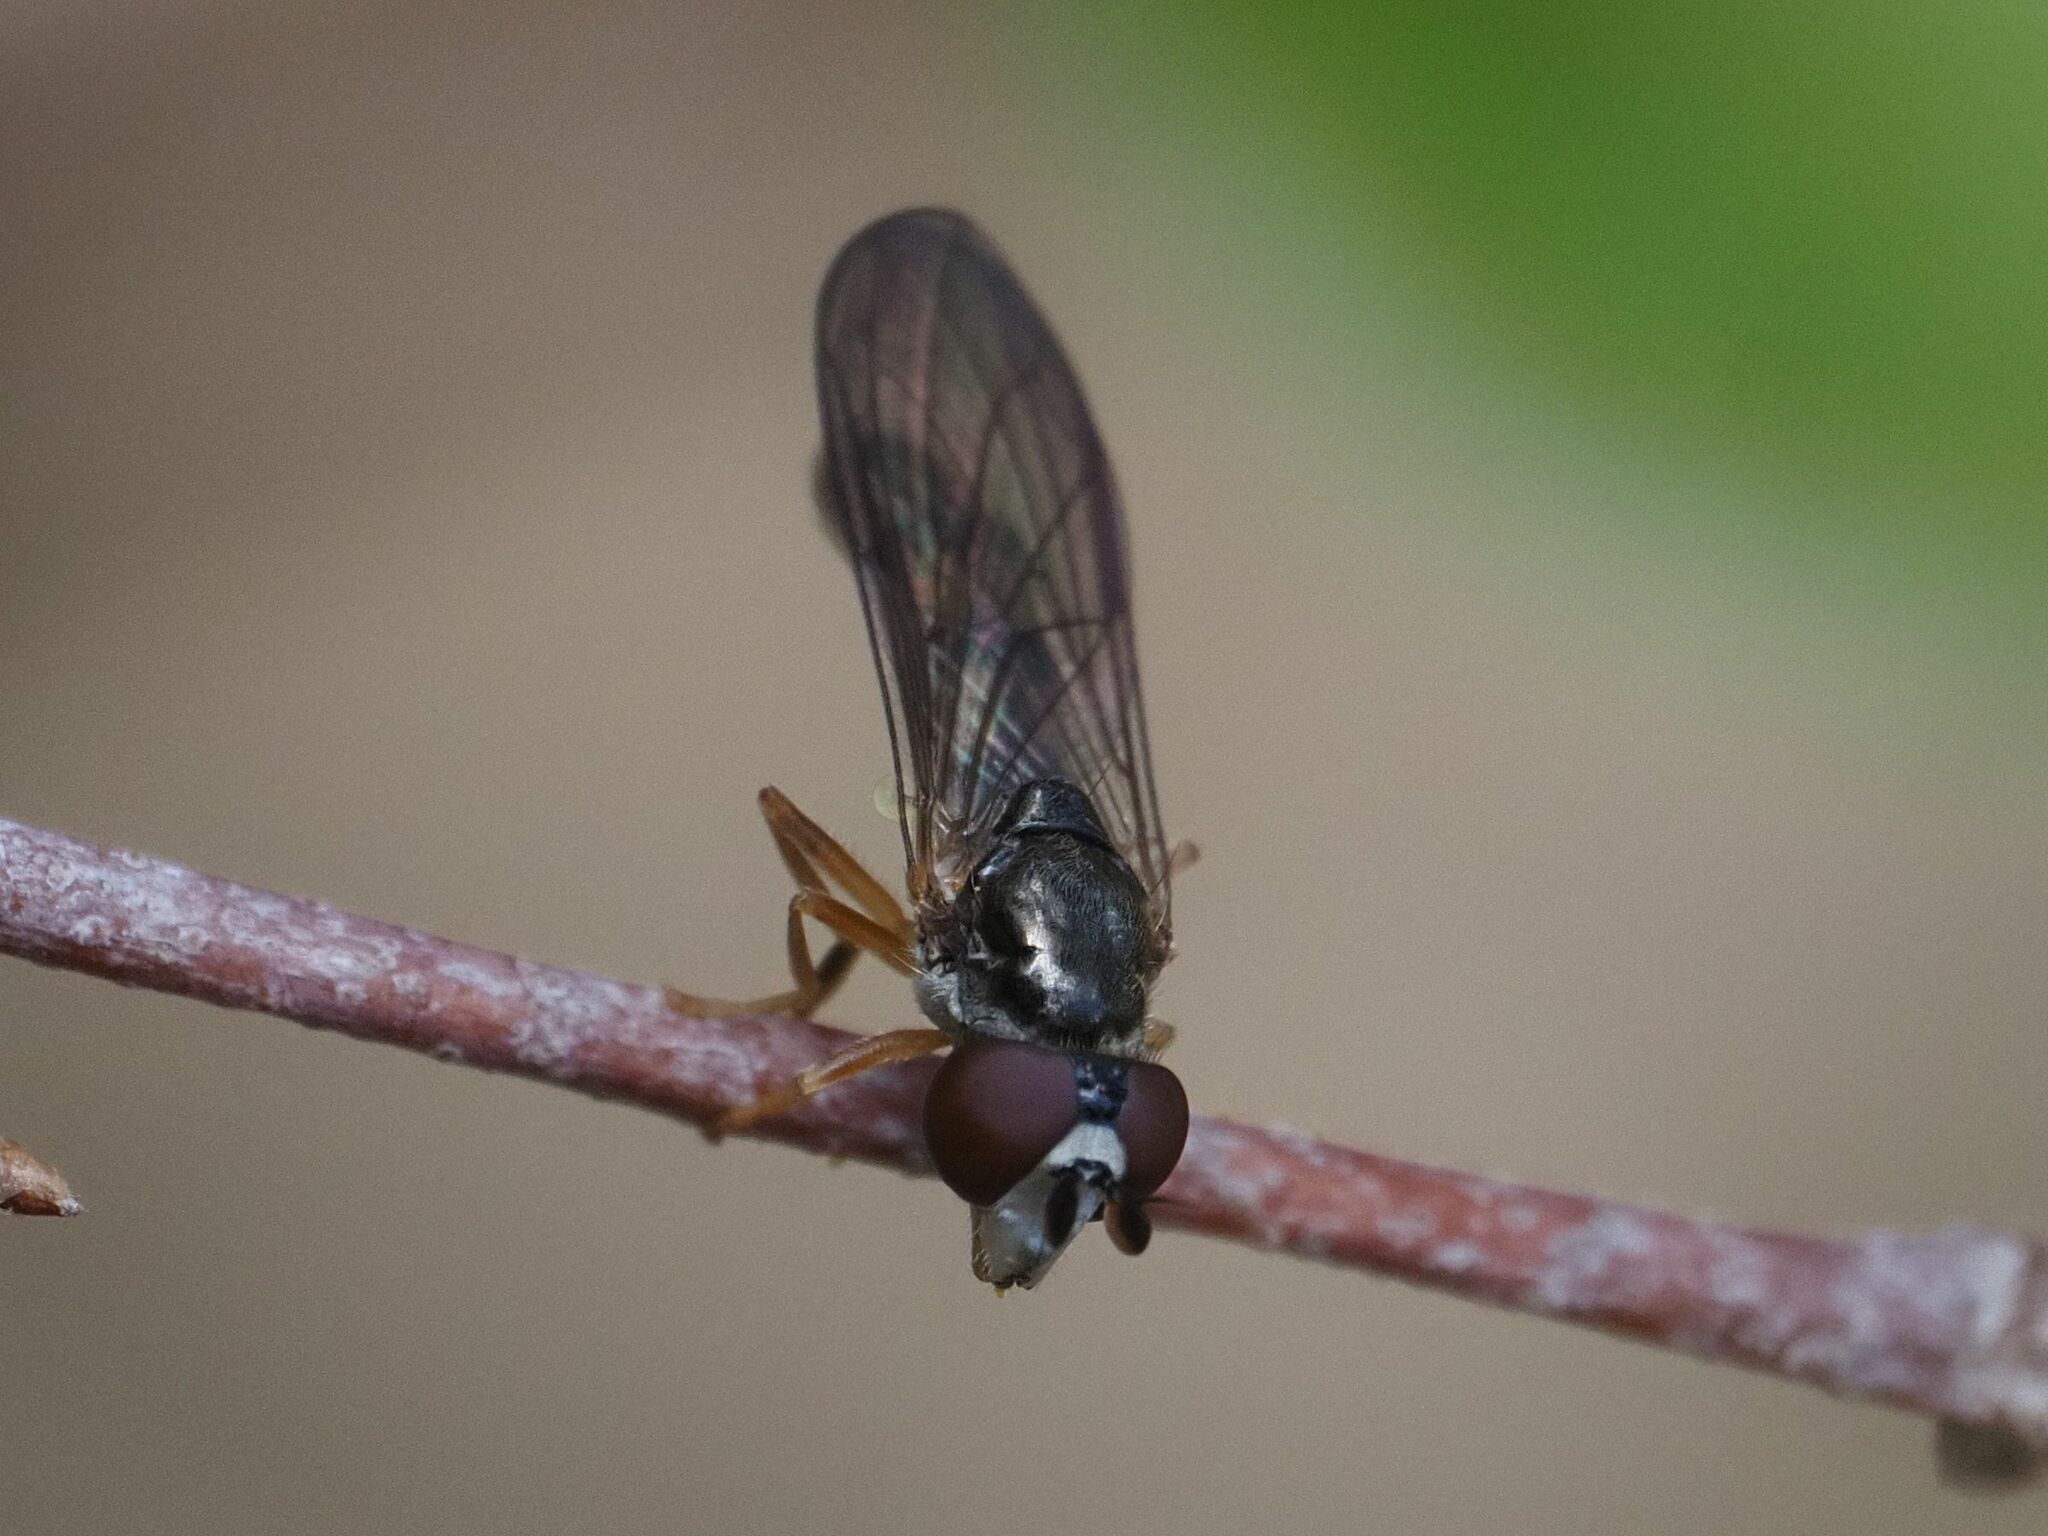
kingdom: Animalia
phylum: Arthropoda
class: Insecta
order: Diptera
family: Syrphidae
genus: Chamaesyrphus
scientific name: Chamaesyrphus scaevoides
